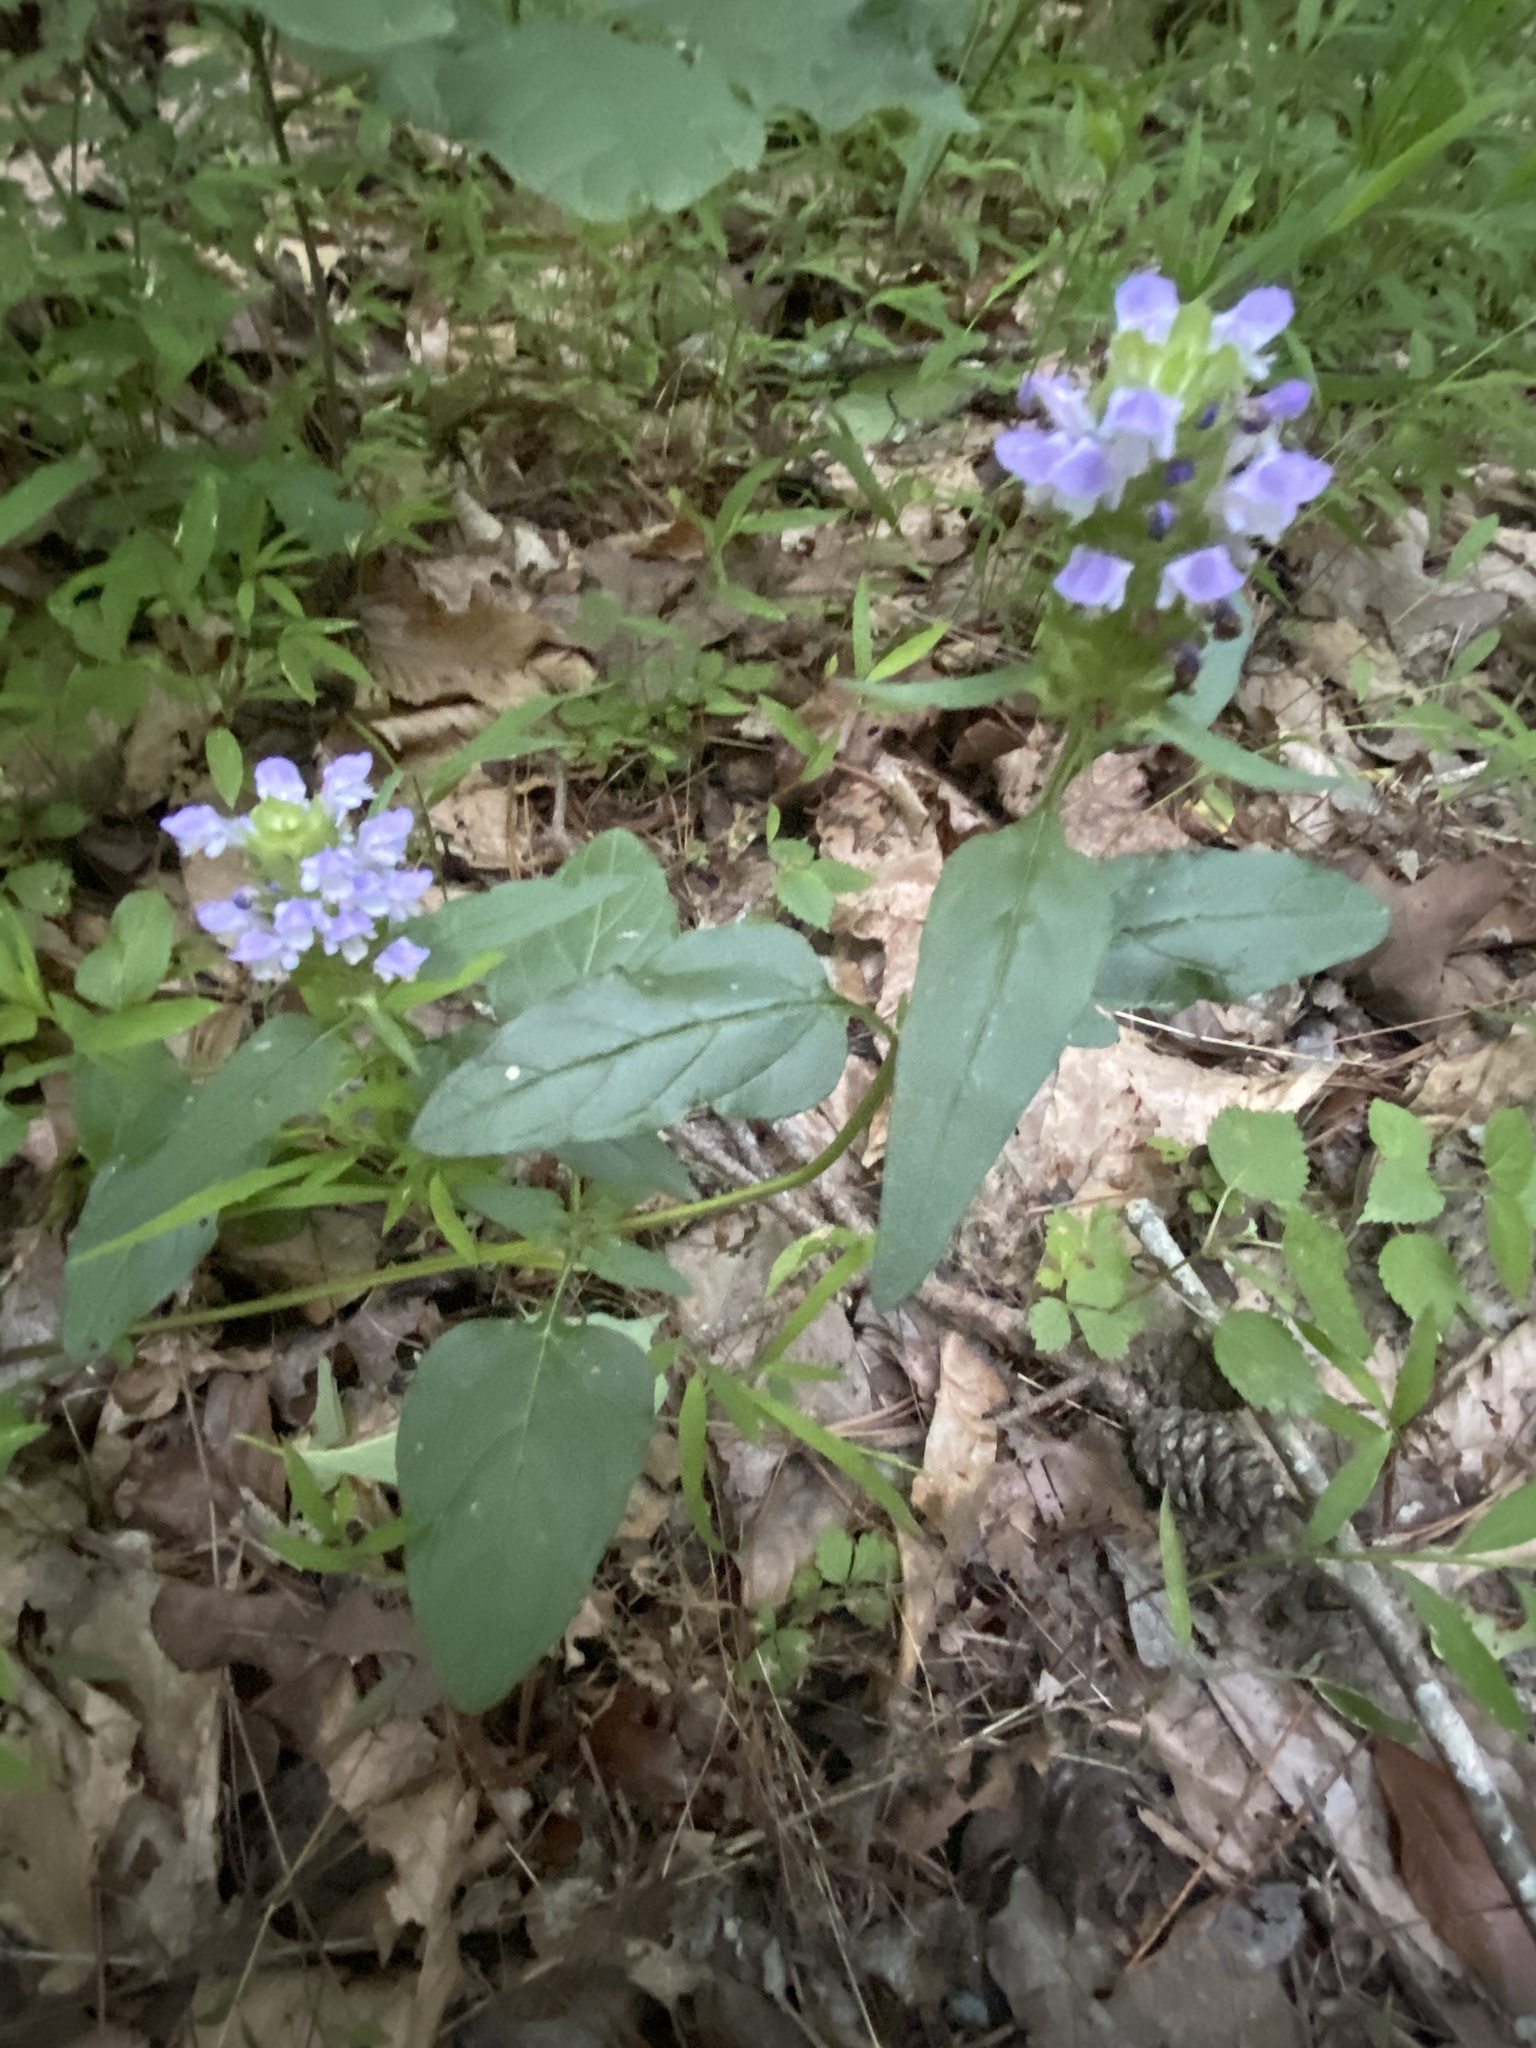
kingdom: Plantae
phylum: Tracheophyta
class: Magnoliopsida
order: Lamiales
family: Lamiaceae
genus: Prunella
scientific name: Prunella vulgaris
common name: Heal-all
